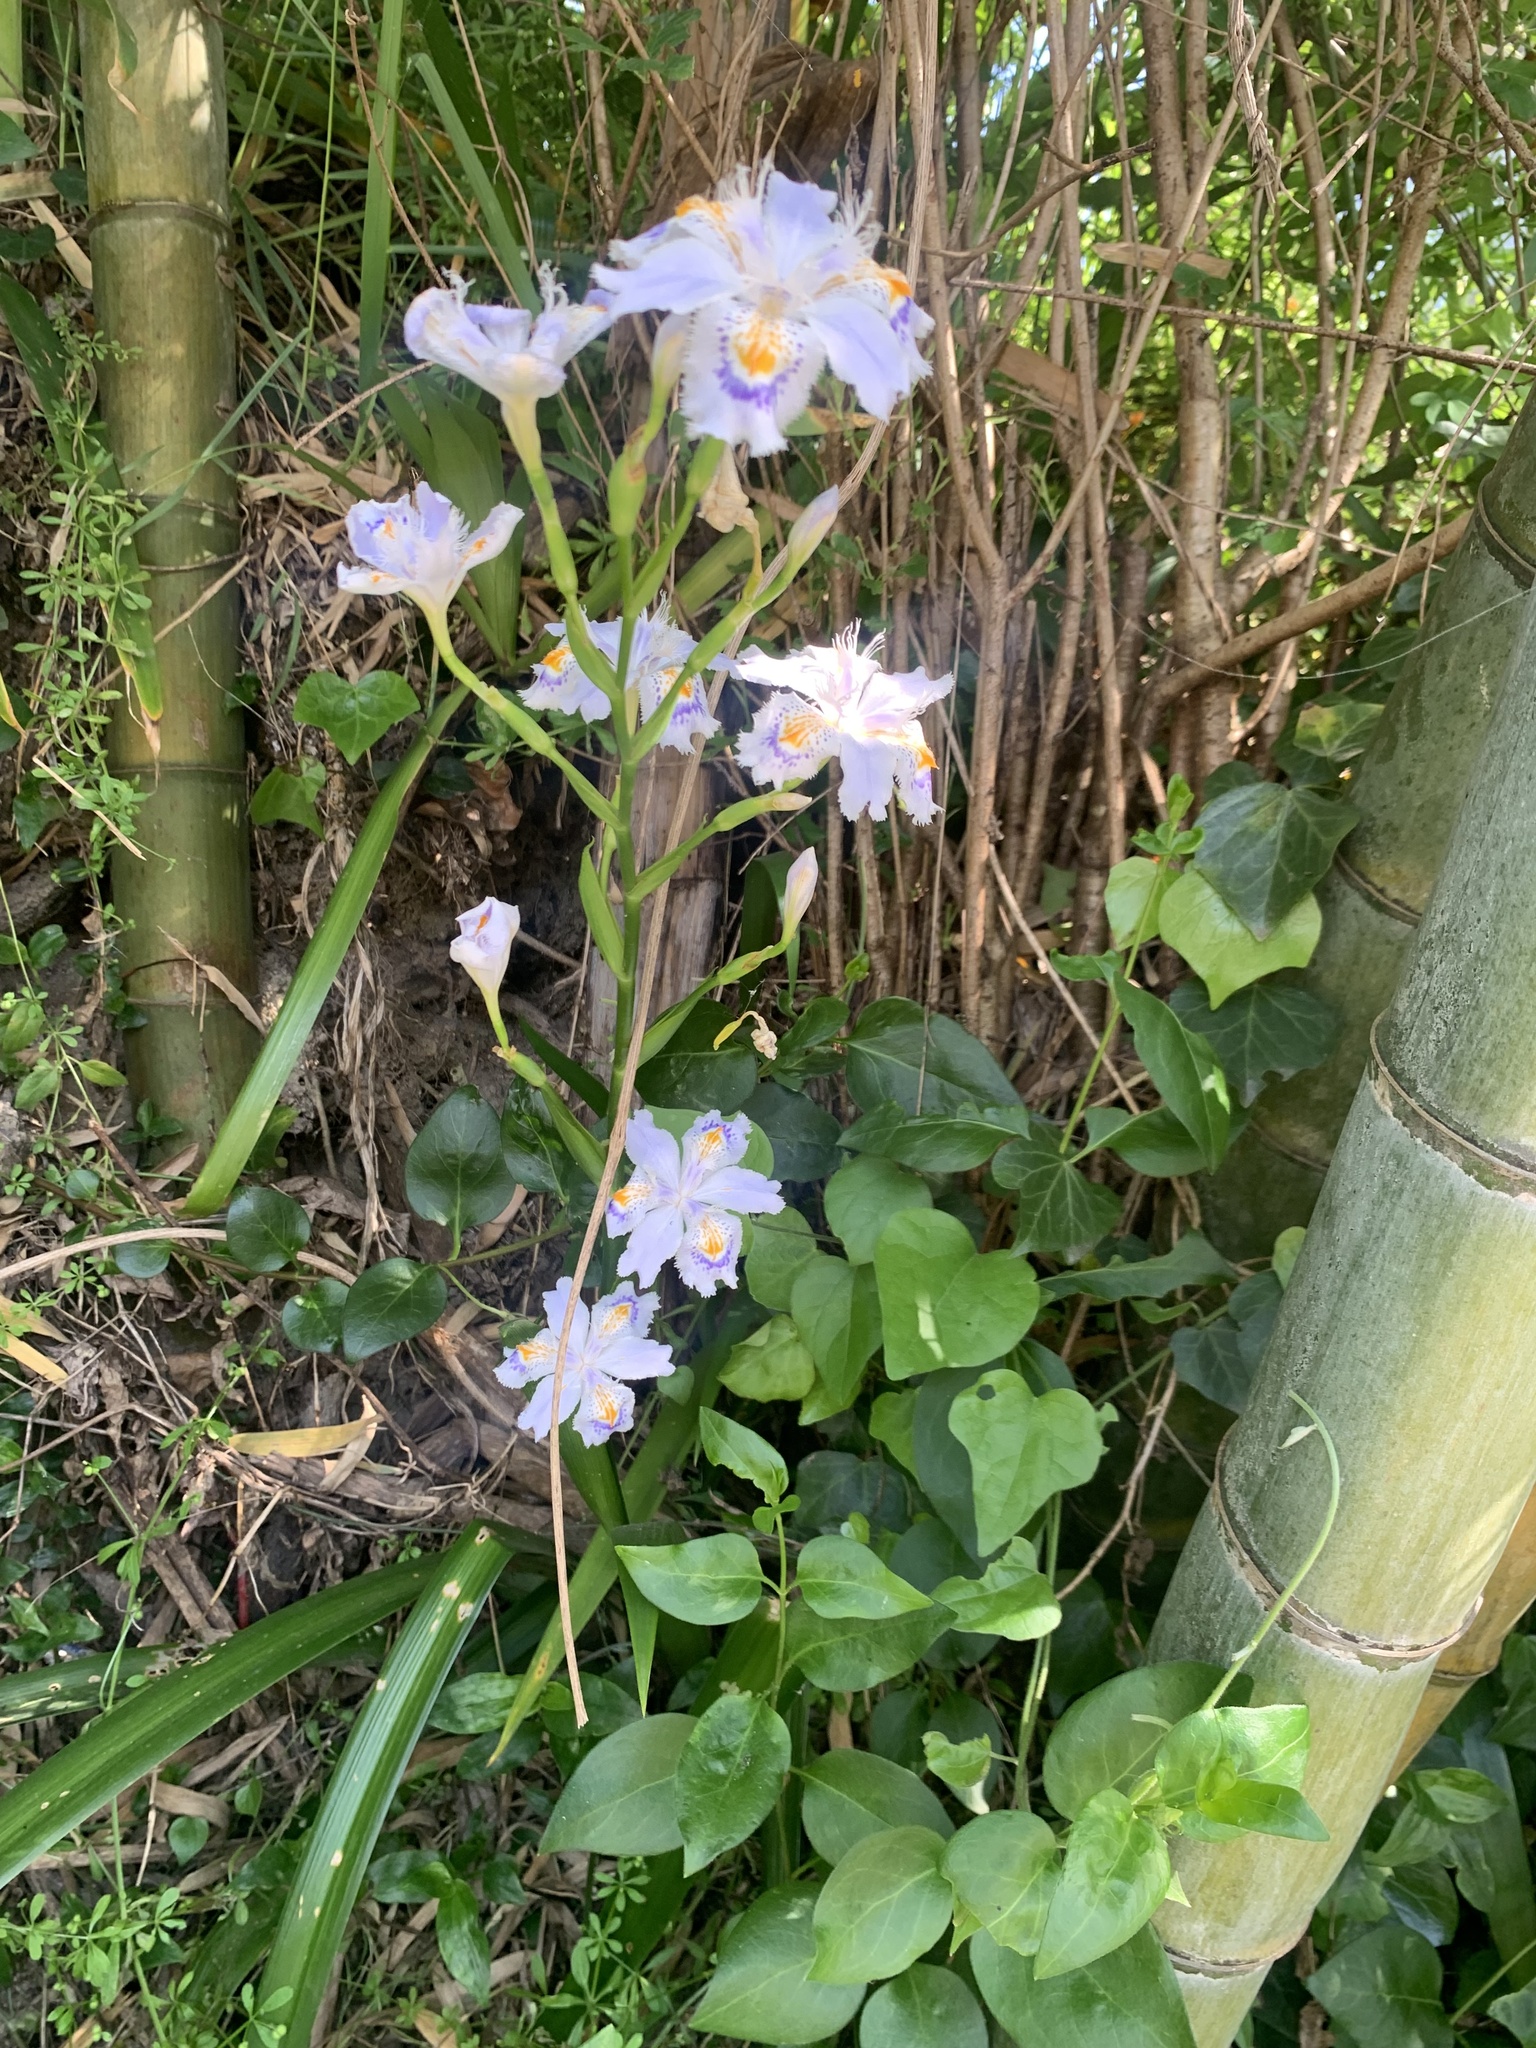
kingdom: Plantae
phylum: Tracheophyta
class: Liliopsida
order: Asparagales
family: Iridaceae
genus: Iris
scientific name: Iris japonica
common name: Butterfly-flower
